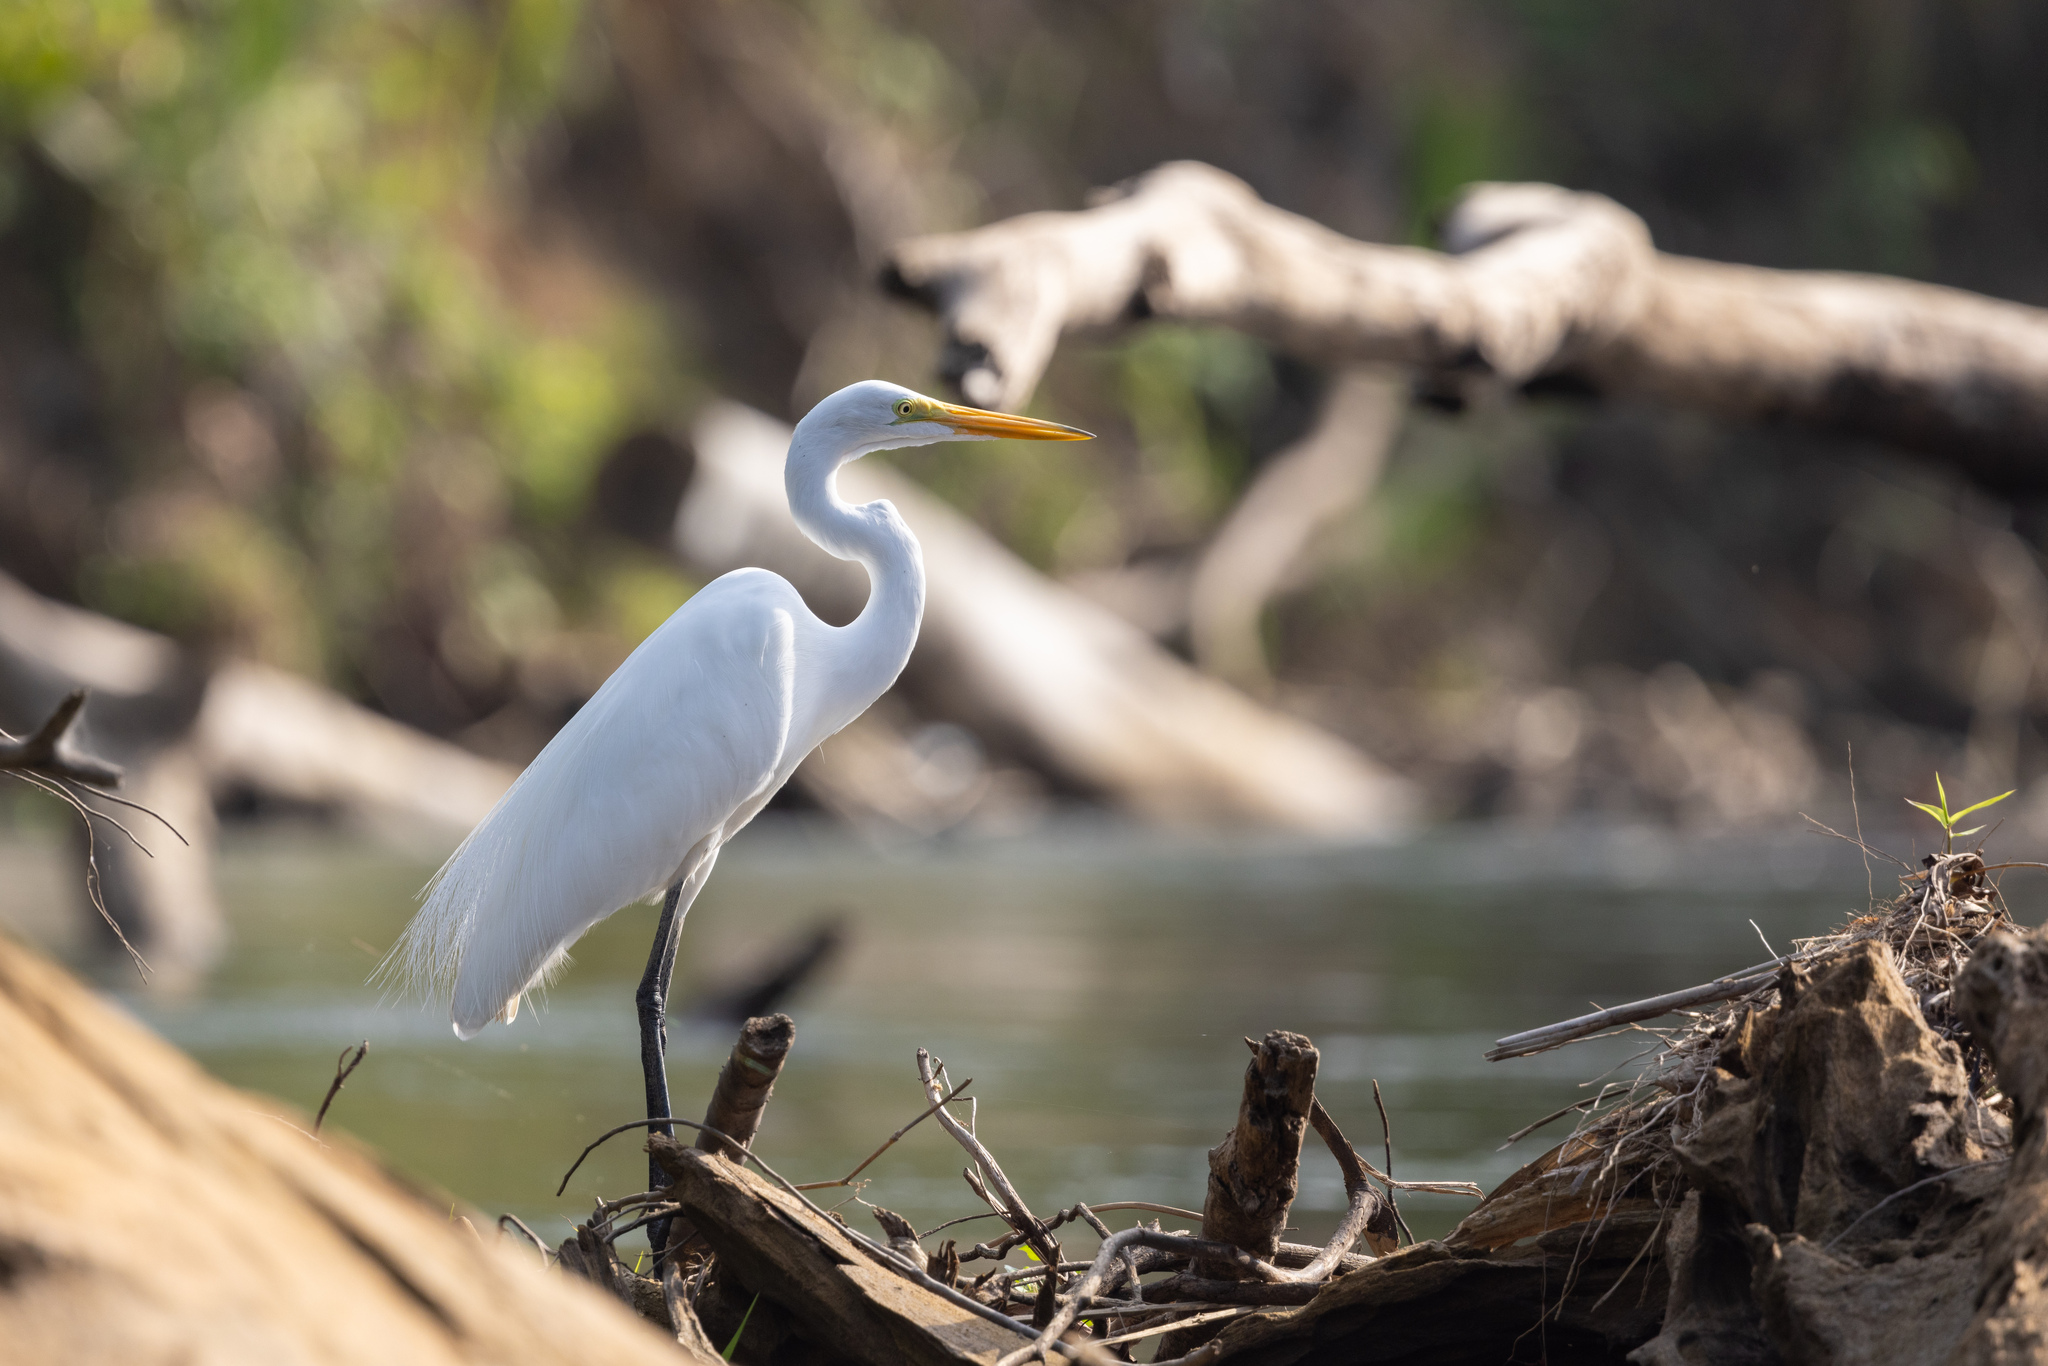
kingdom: Animalia
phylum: Chordata
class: Aves
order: Pelecaniformes
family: Ardeidae
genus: Ardea
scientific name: Ardea alba
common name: Great egret
